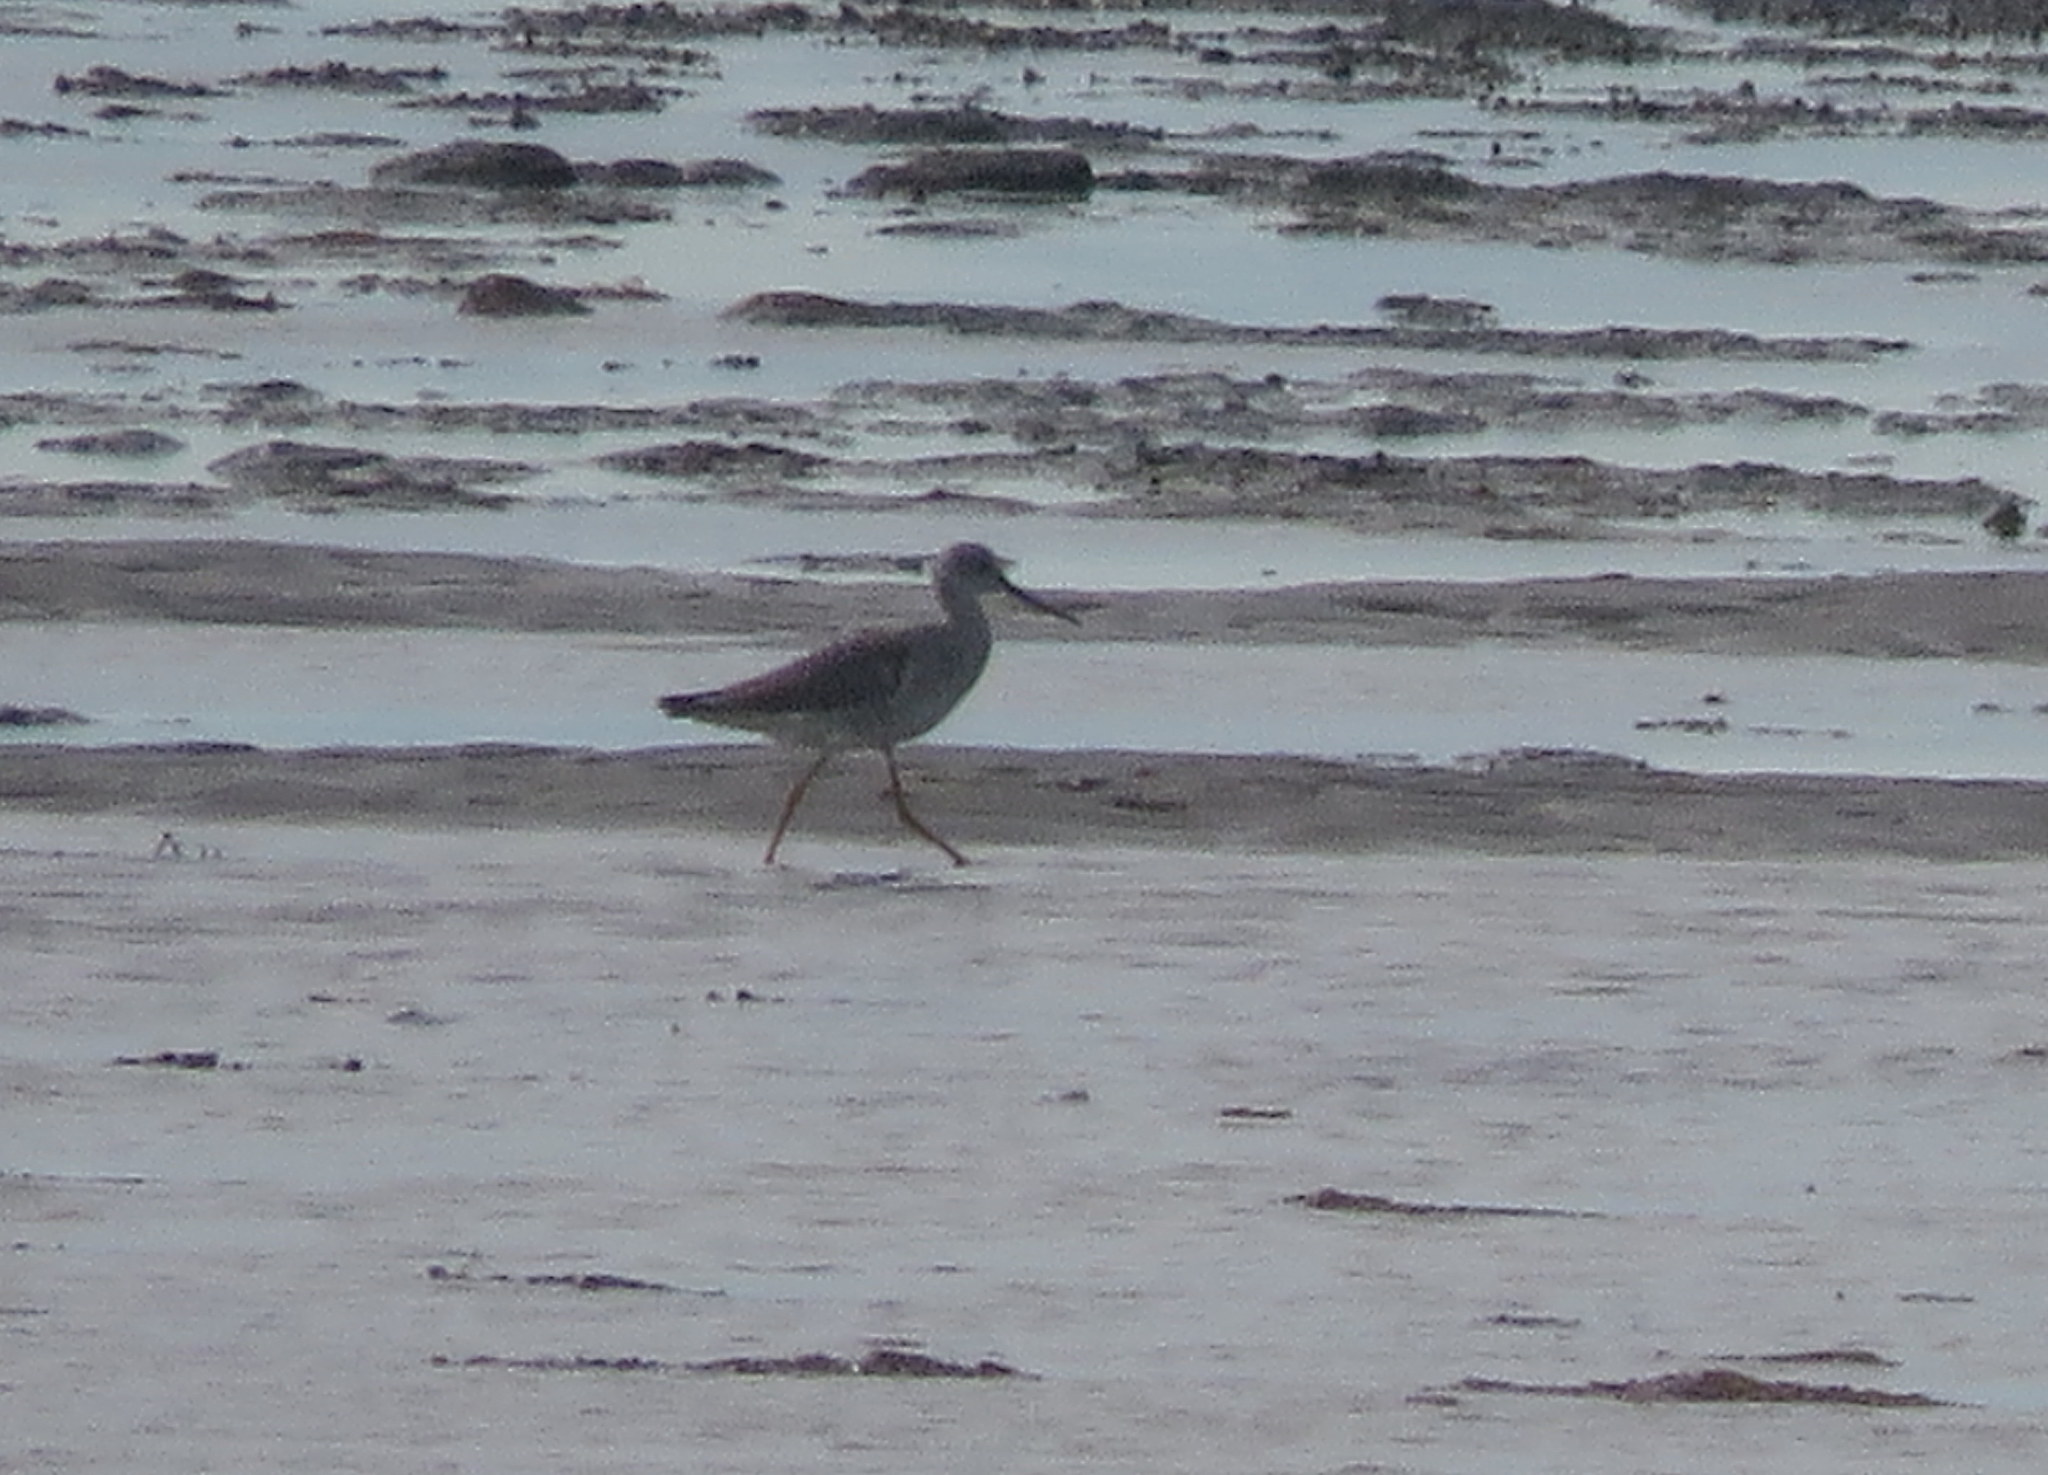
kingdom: Animalia
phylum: Chordata
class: Aves
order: Charadriiformes
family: Scolopacidae
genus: Tringa
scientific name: Tringa melanoleuca
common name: Greater yellowlegs
